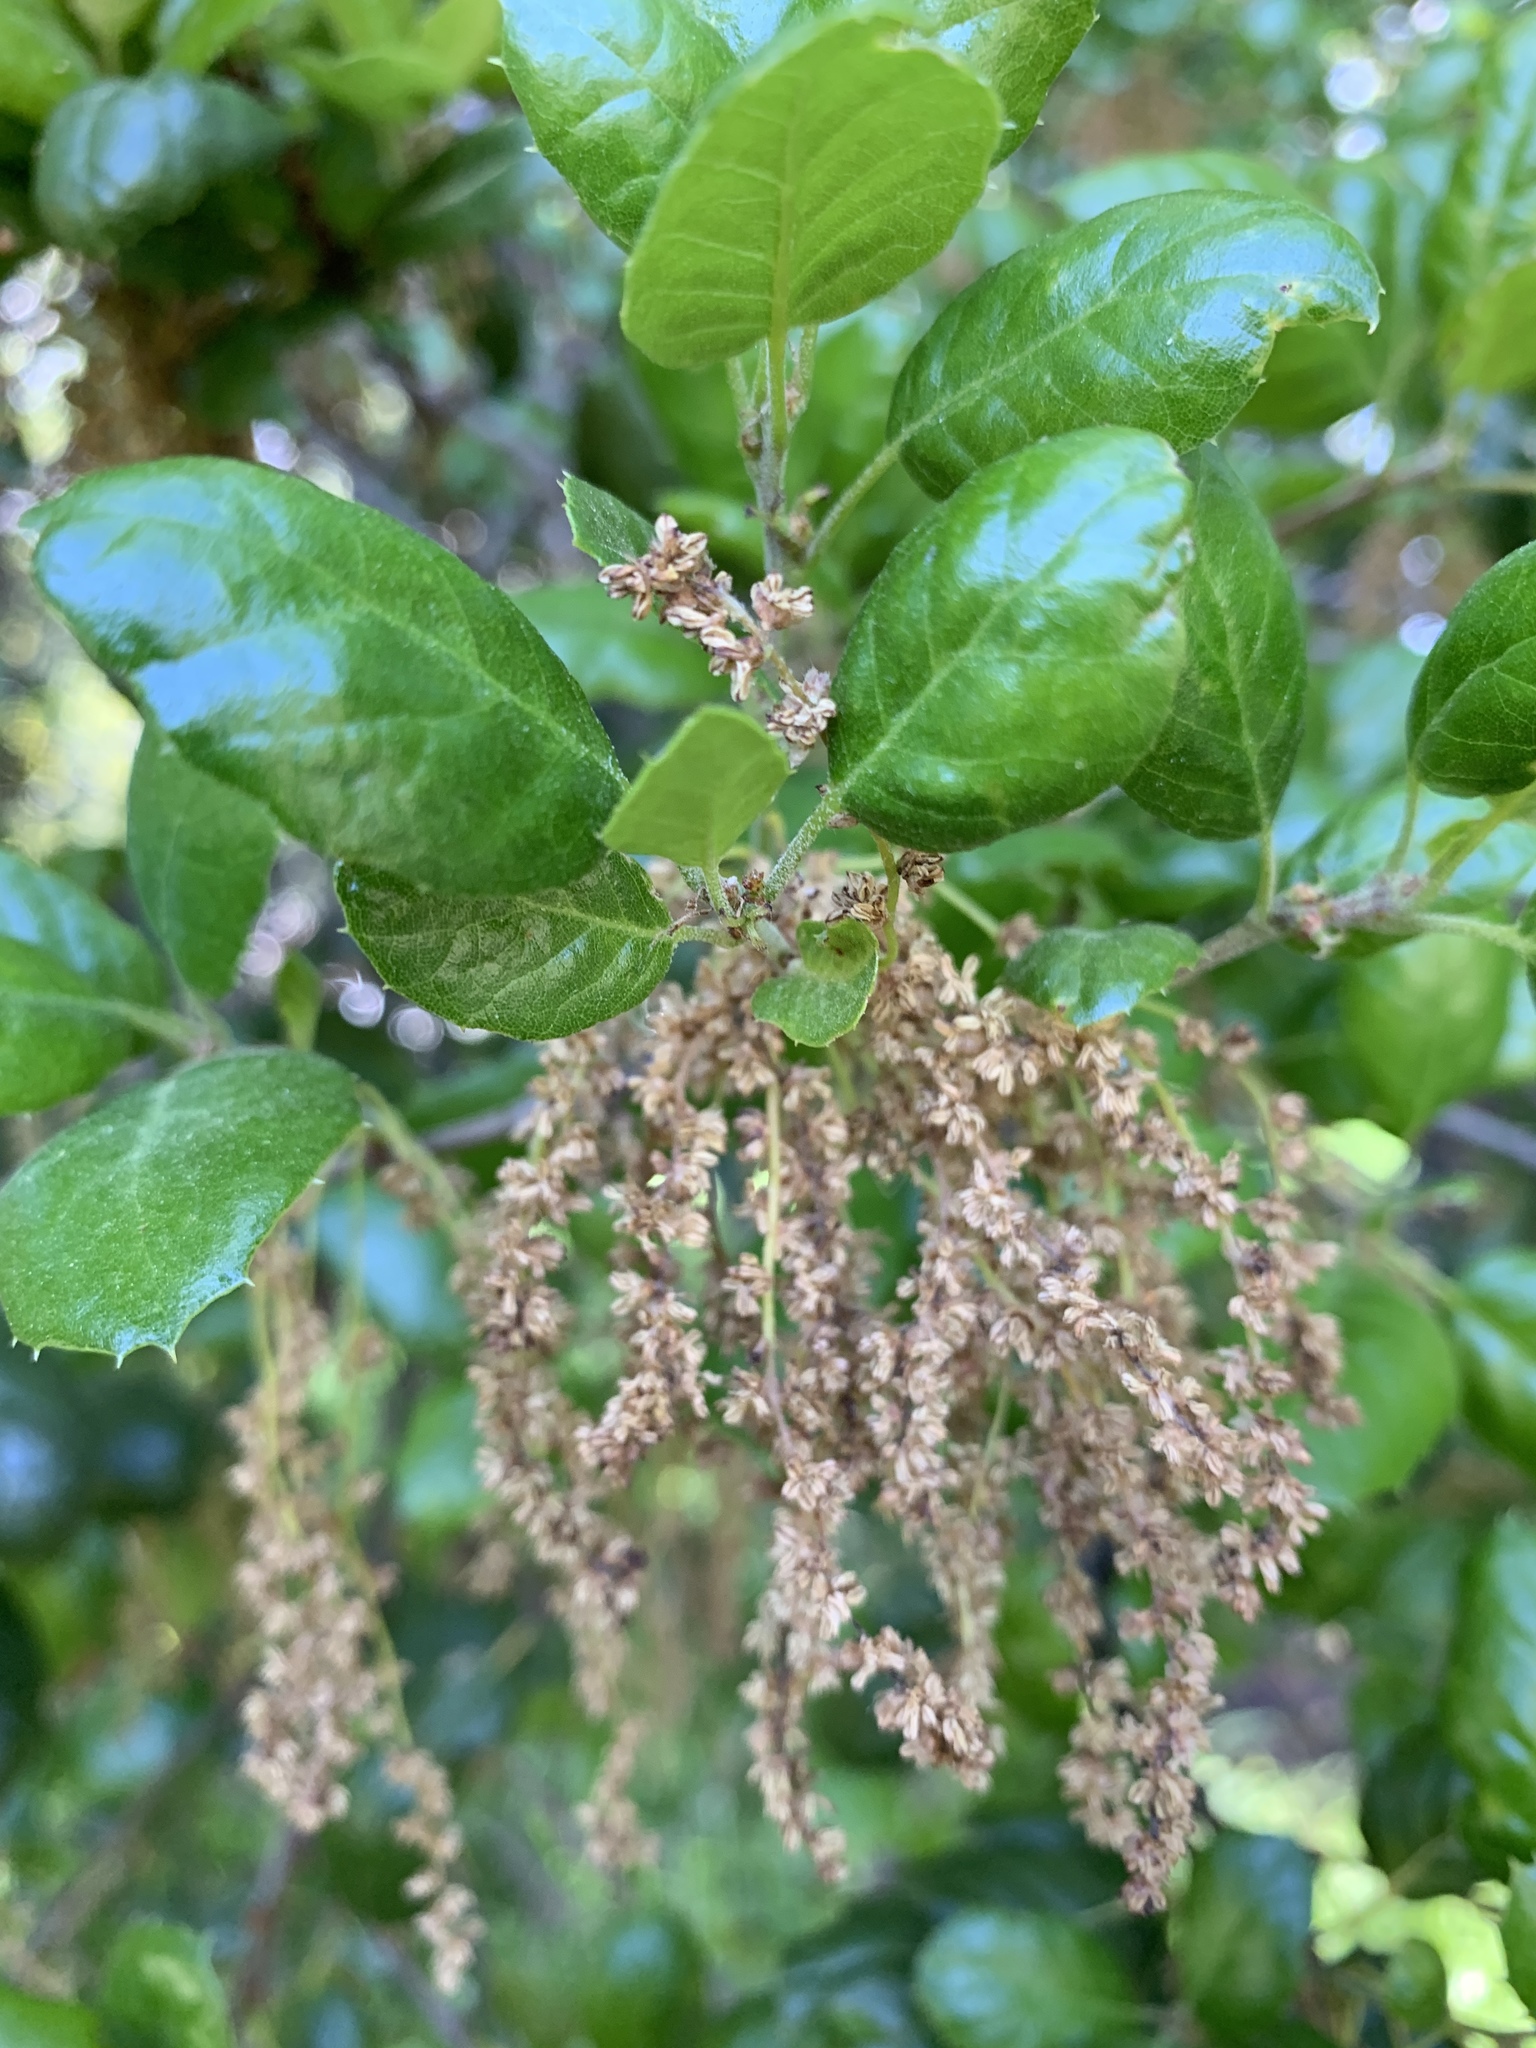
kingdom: Plantae
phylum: Tracheophyta
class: Magnoliopsida
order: Fagales
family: Fagaceae
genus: Quercus
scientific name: Quercus agrifolia
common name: California live oak
